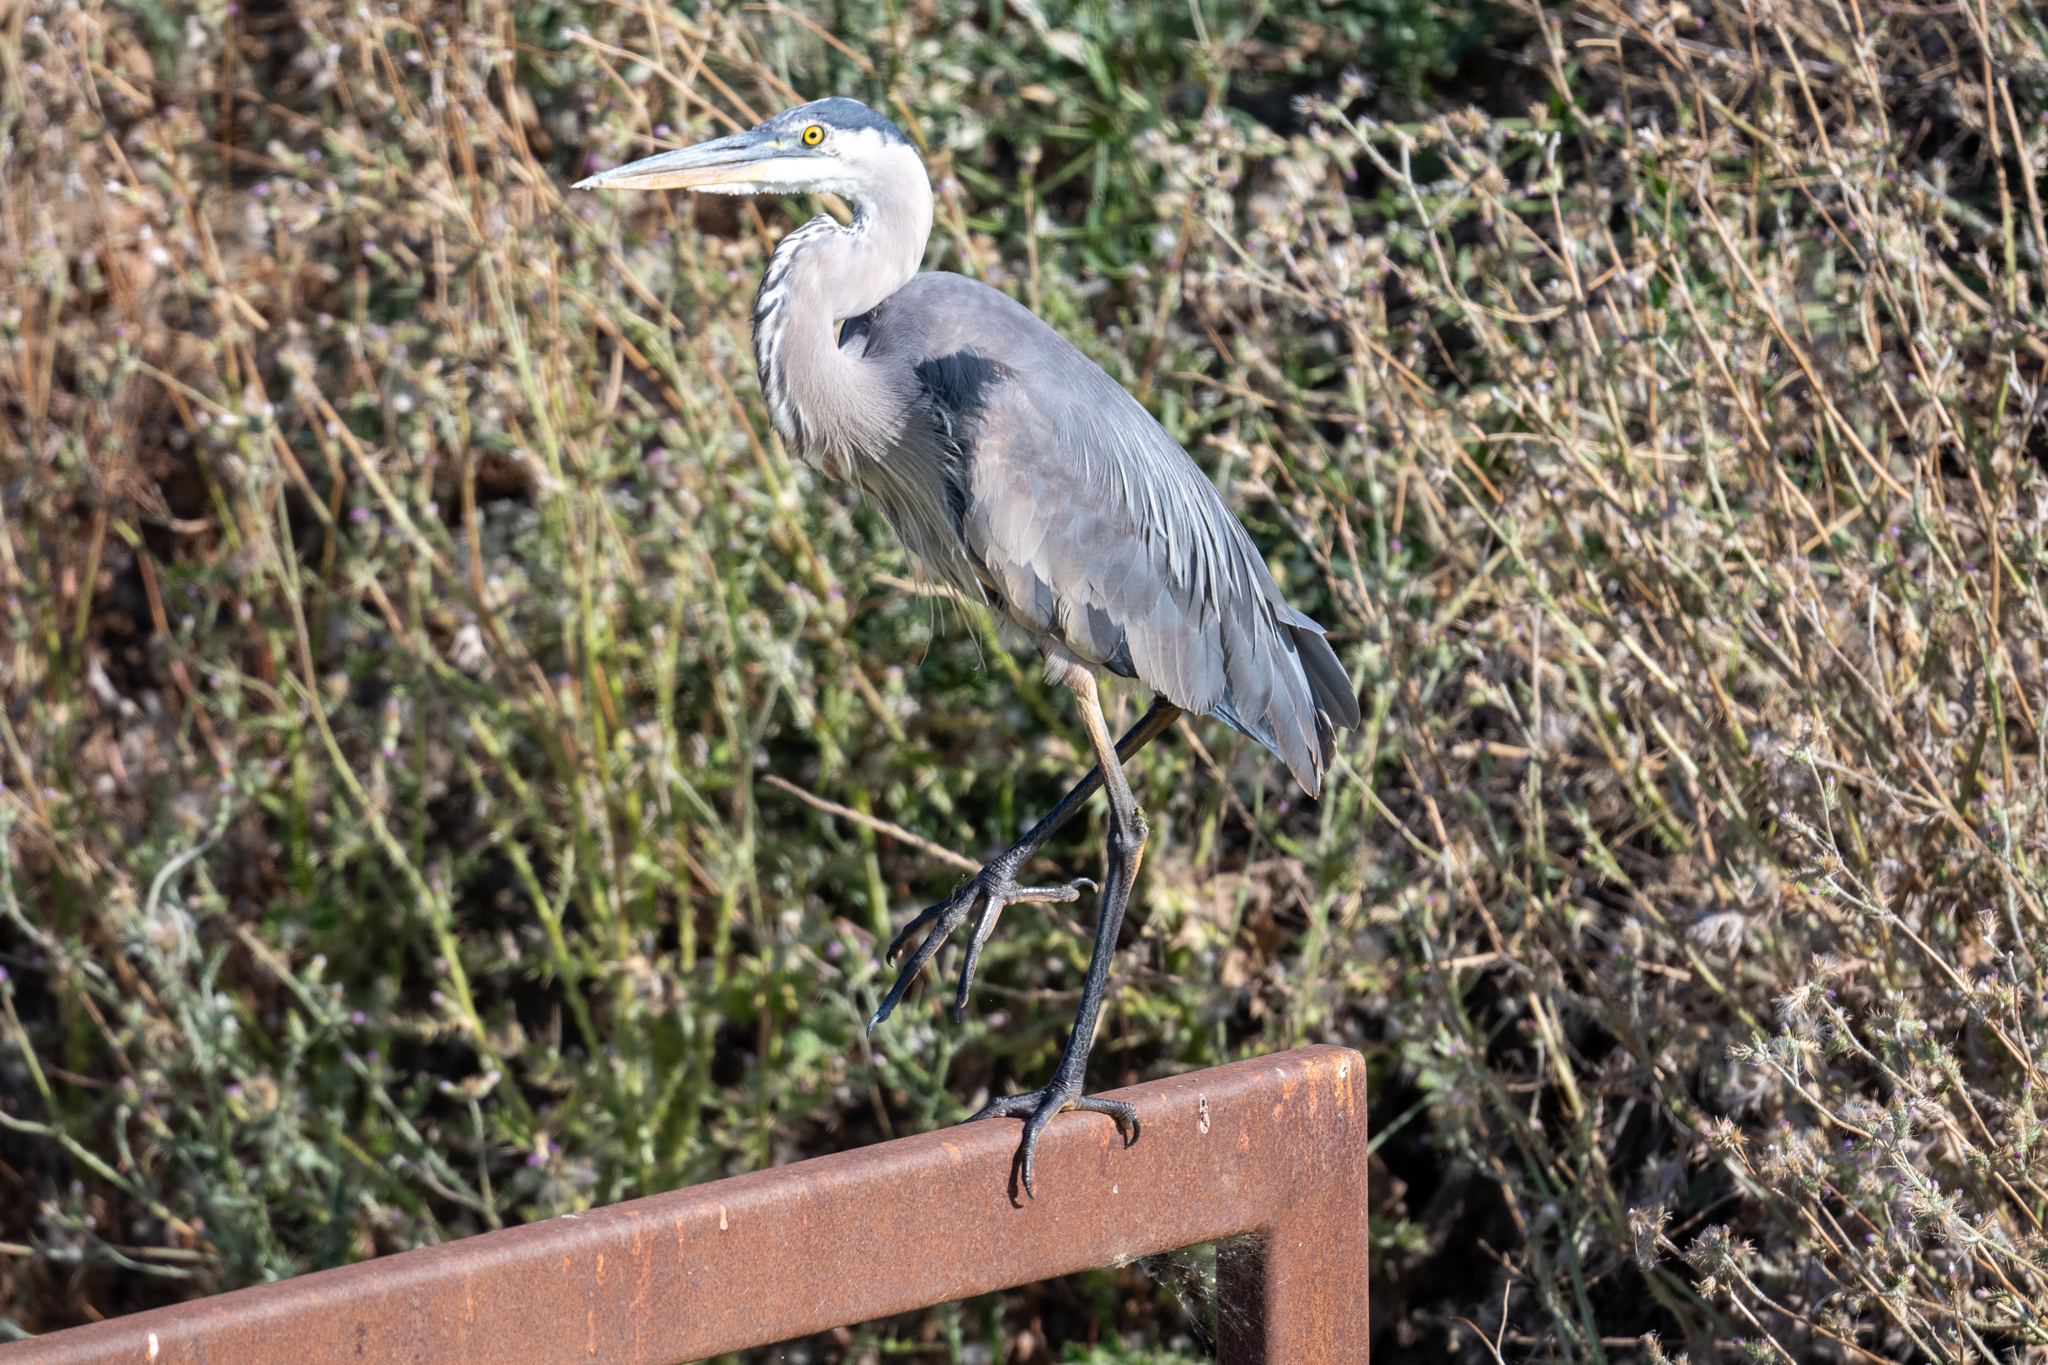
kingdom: Animalia
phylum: Chordata
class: Aves
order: Pelecaniformes
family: Ardeidae
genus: Ardea
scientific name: Ardea herodias
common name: Great blue heron
